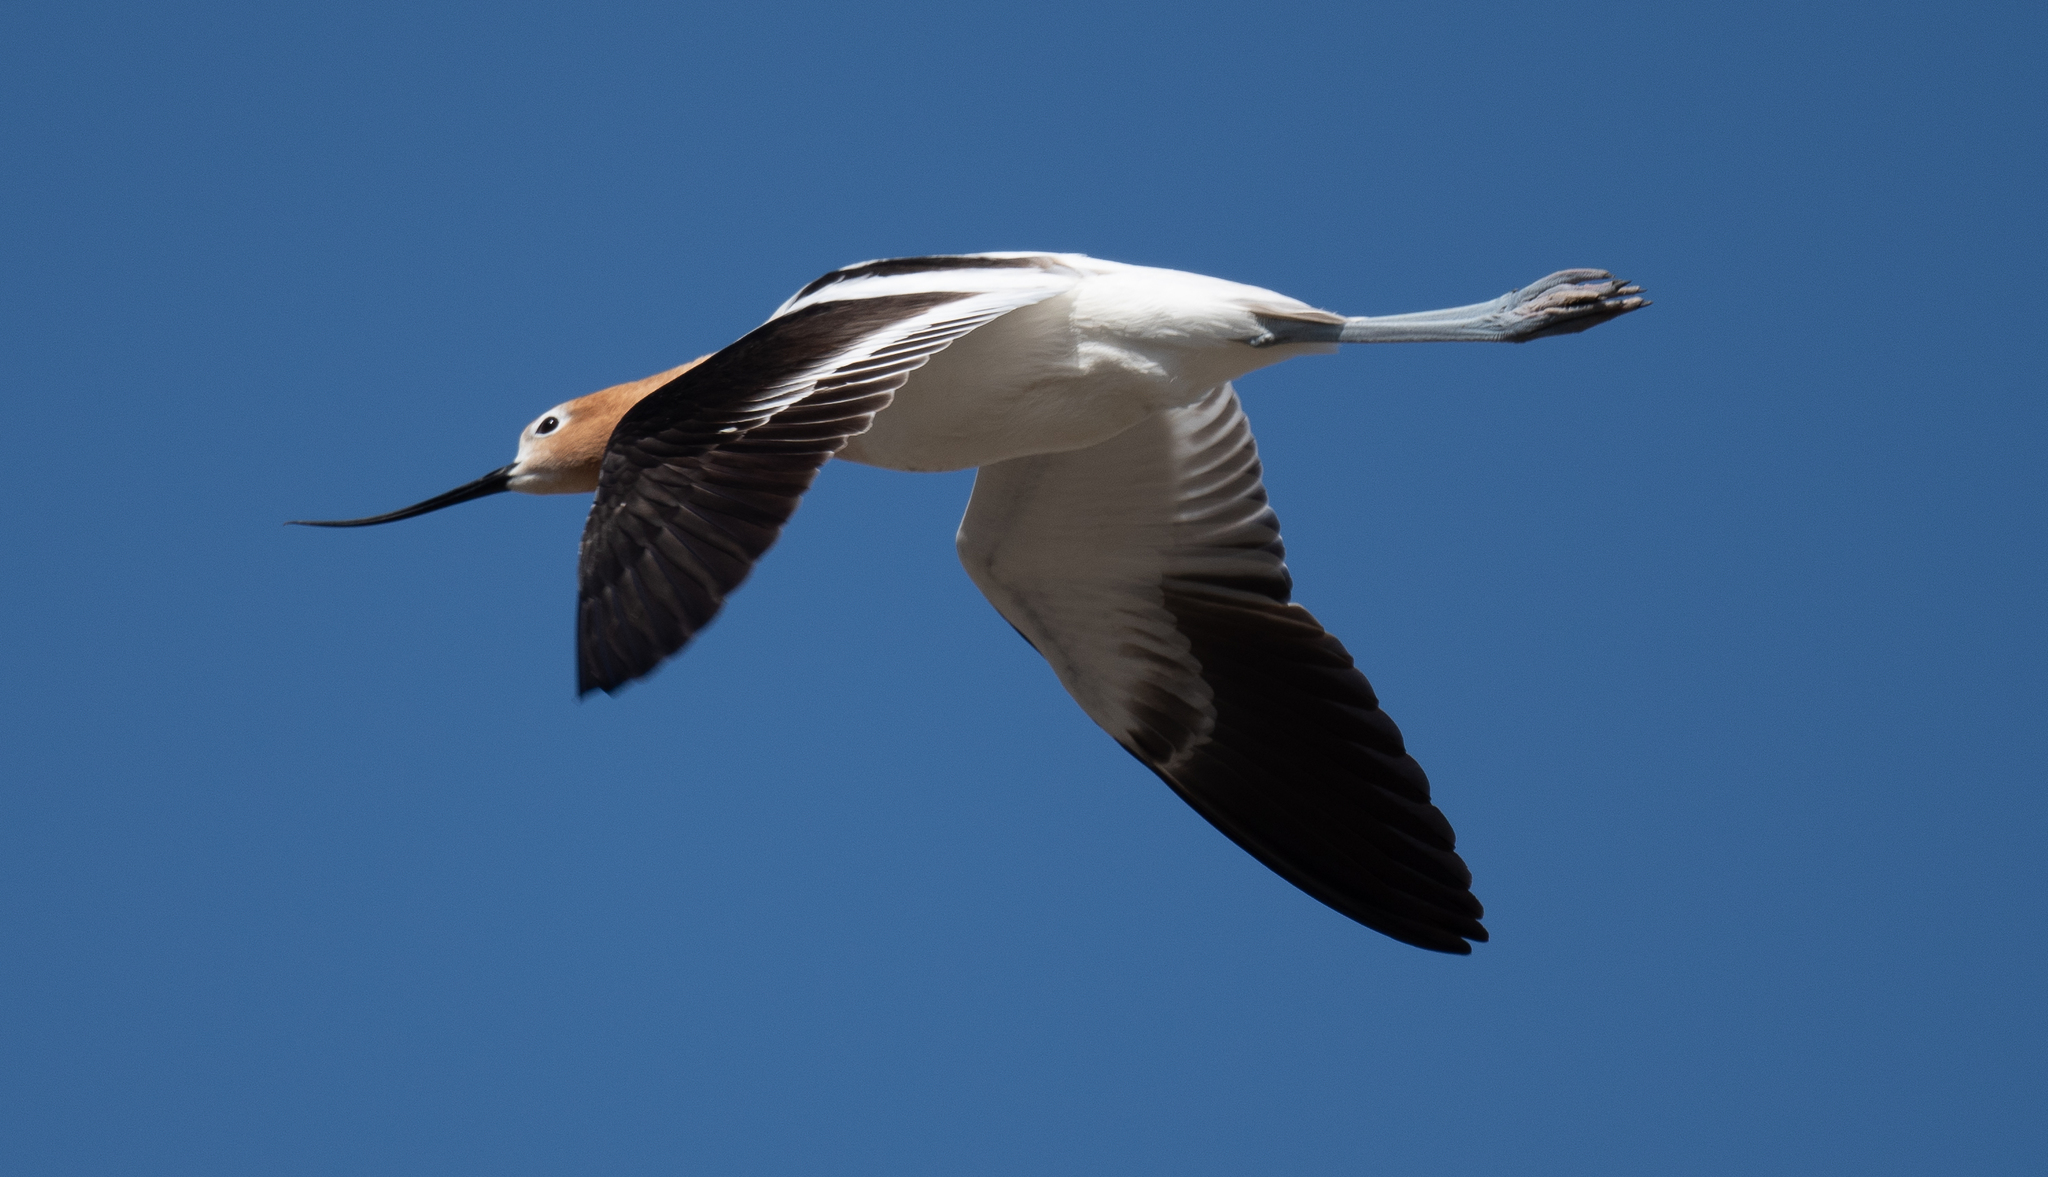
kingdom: Animalia
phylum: Chordata
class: Aves
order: Charadriiformes
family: Recurvirostridae
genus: Recurvirostra
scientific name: Recurvirostra americana
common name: American avocet
